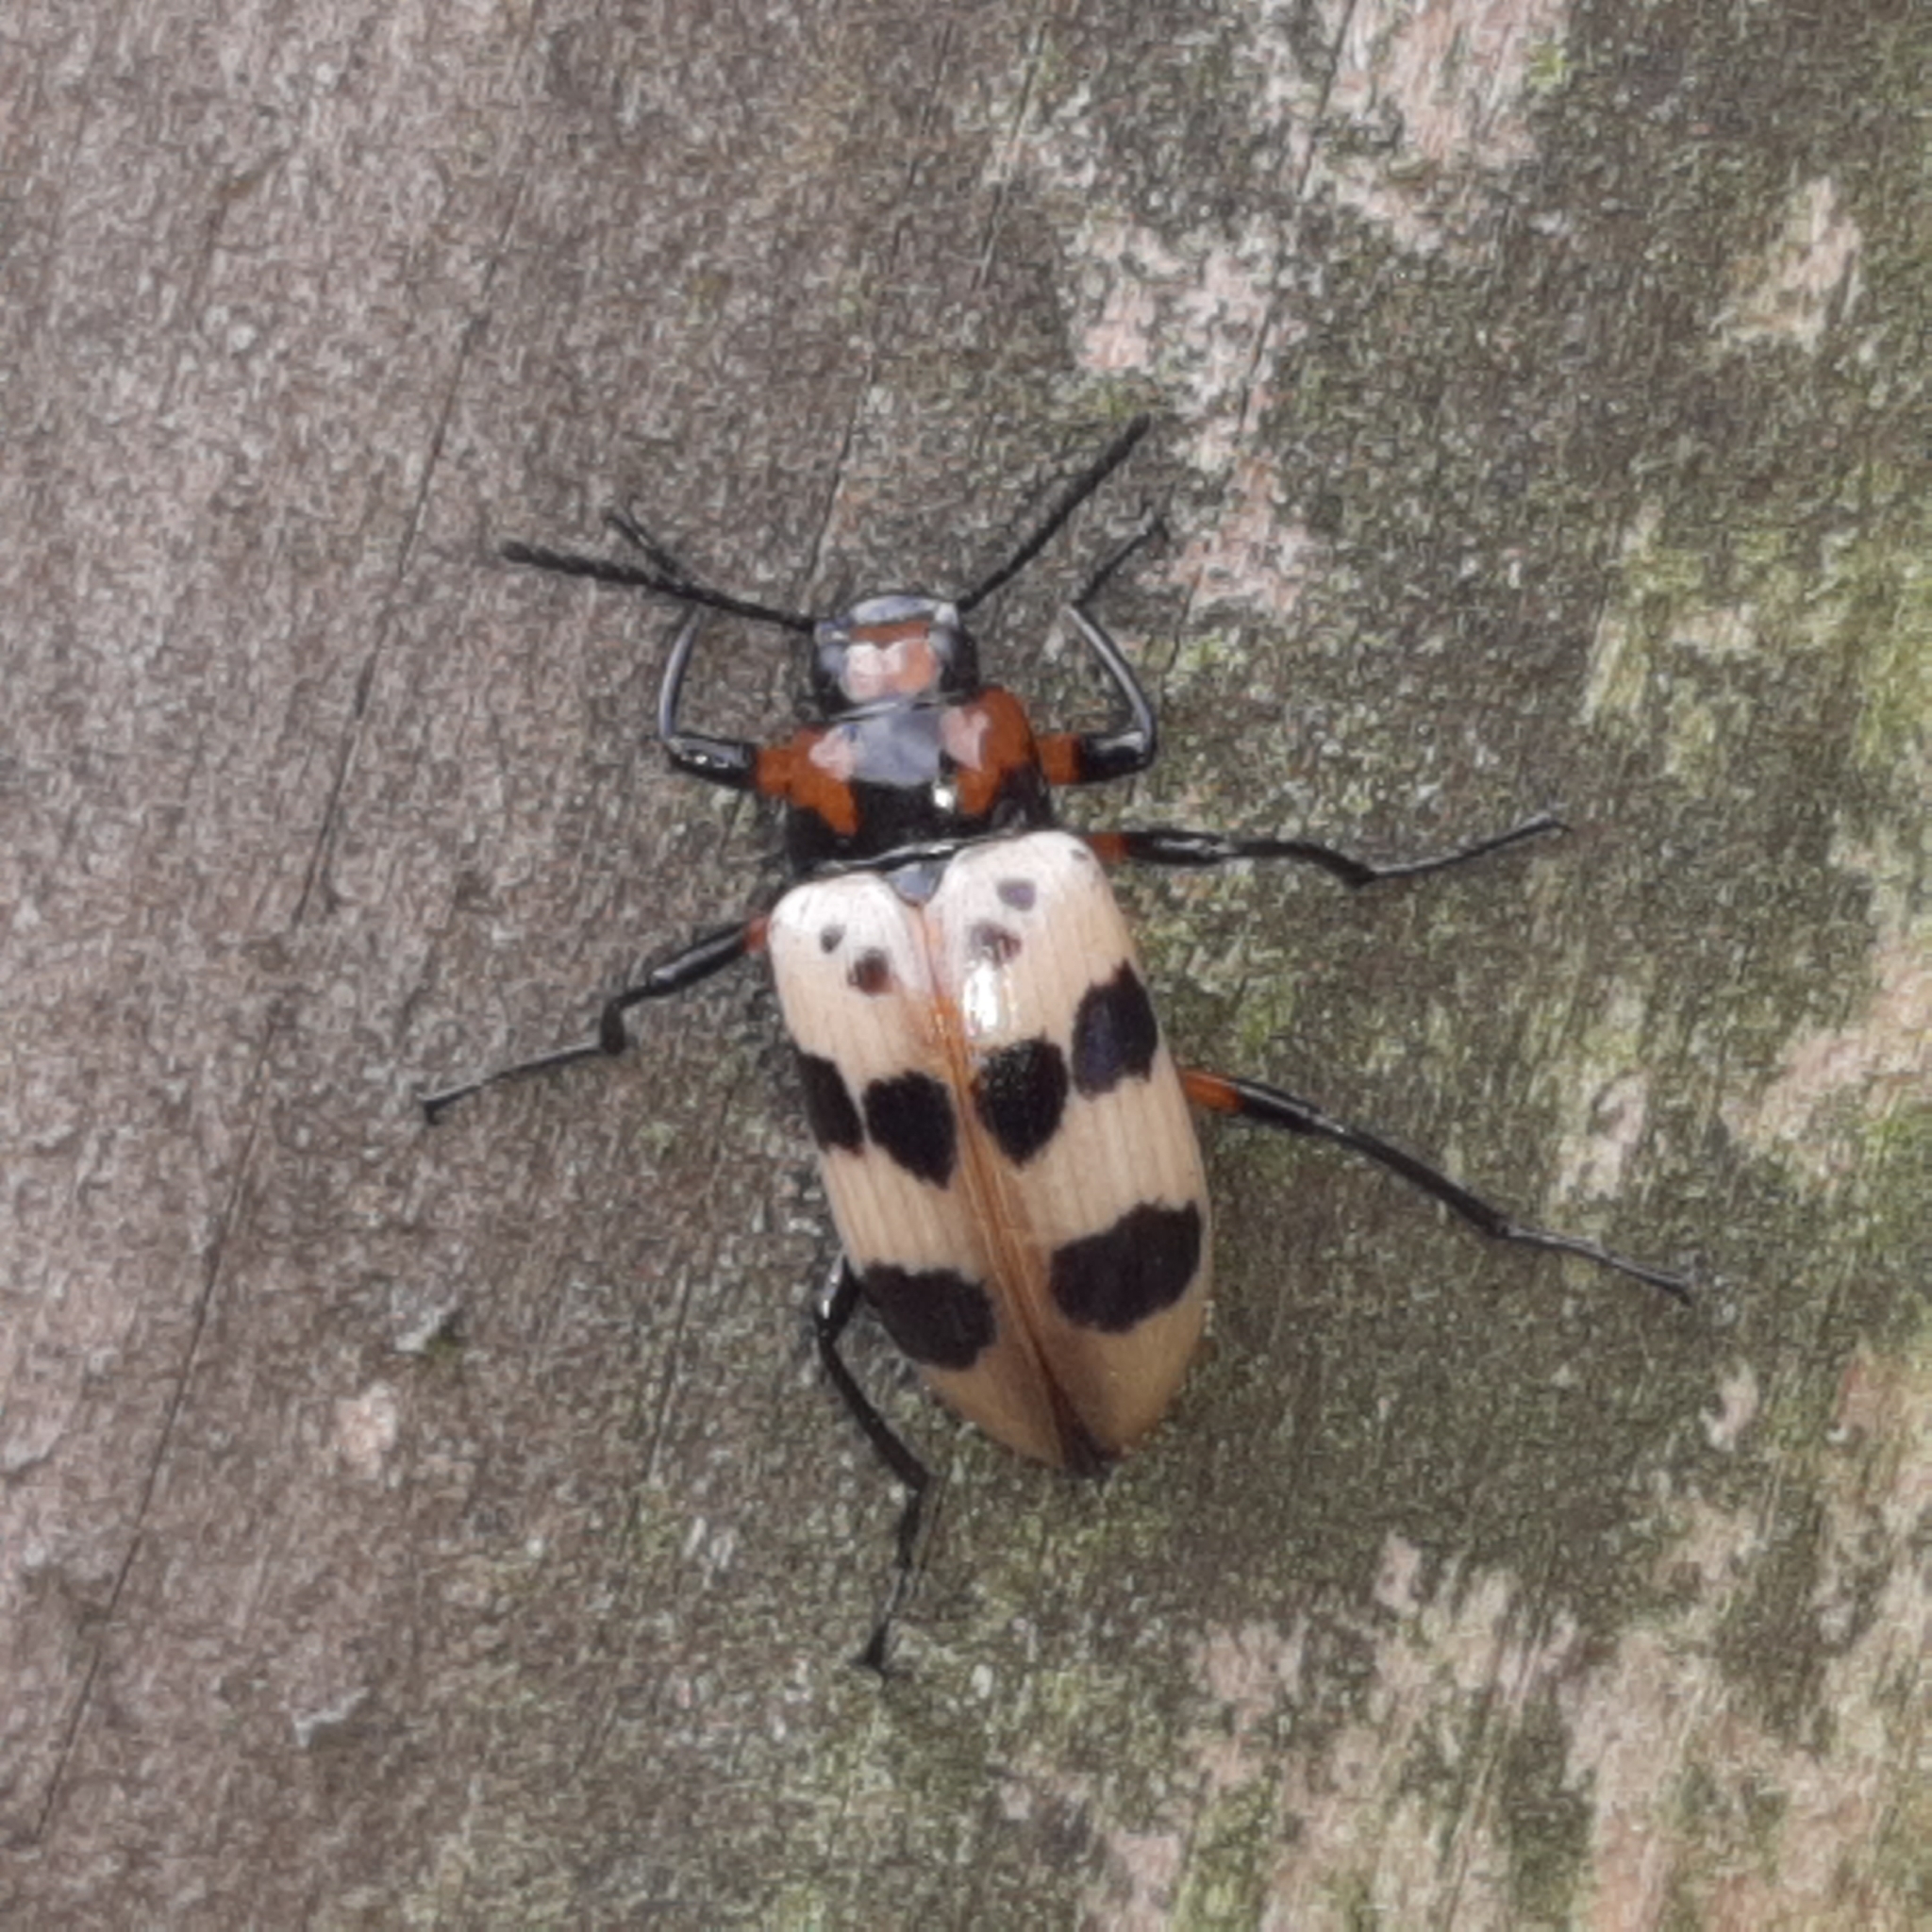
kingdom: Animalia
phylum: Arthropoda
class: Insecta
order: Coleoptera
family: Tenebrionidae
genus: Strongylium
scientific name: Strongylium maculicolle
